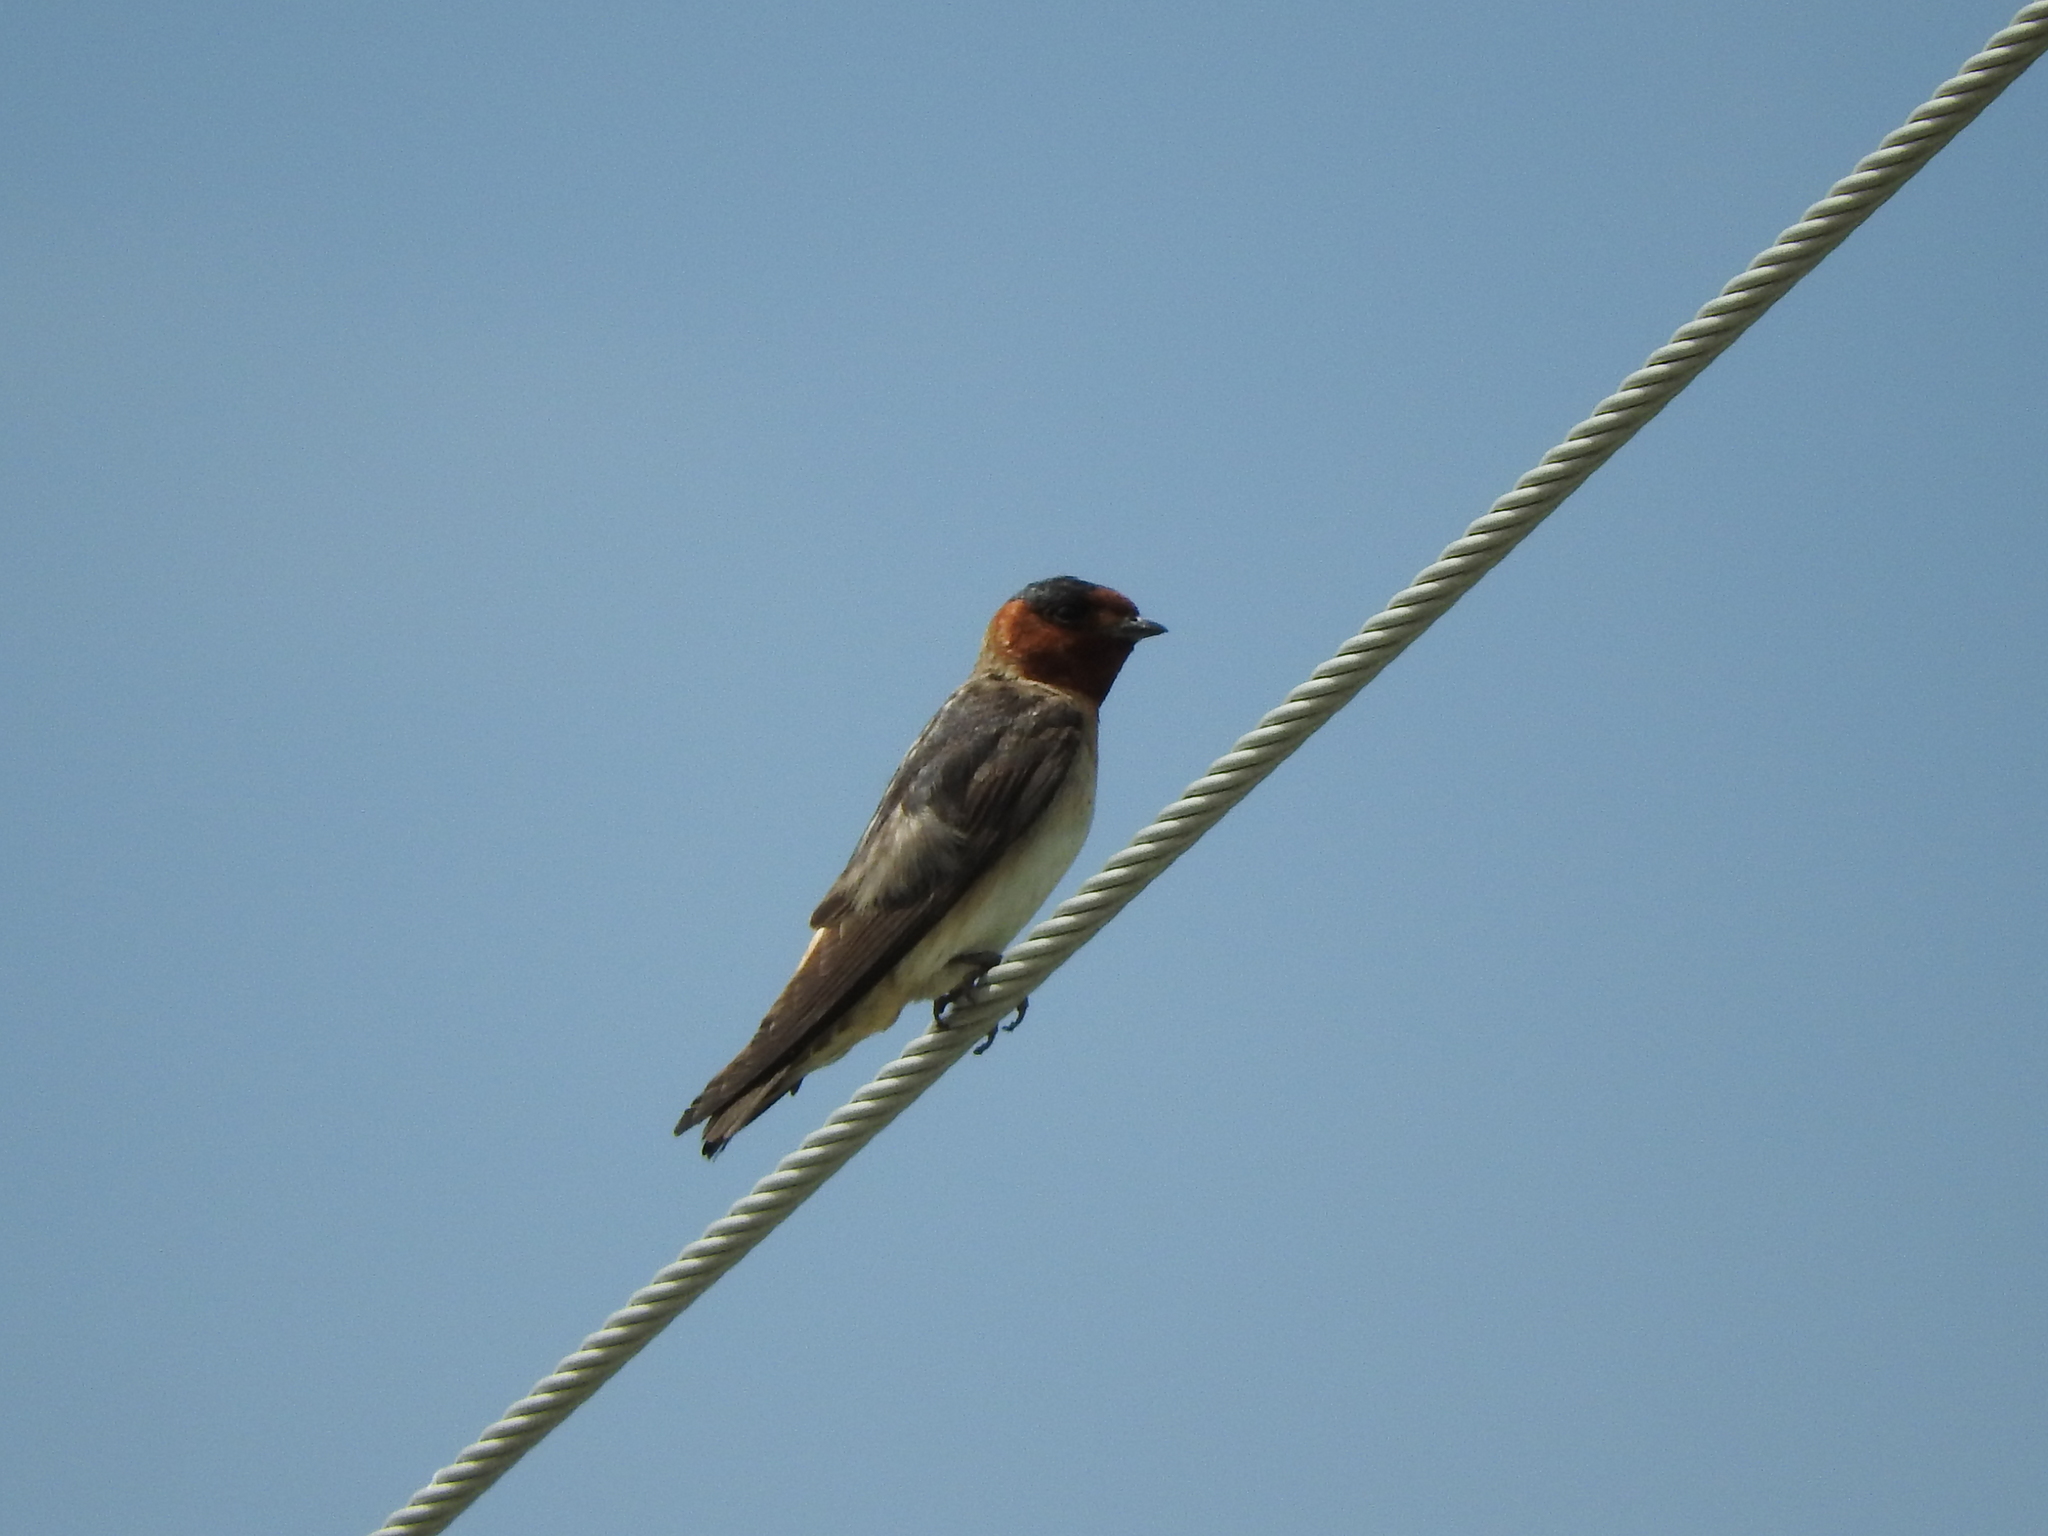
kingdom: Animalia
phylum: Chordata
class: Aves
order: Passeriformes
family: Hirundinidae
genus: Petrochelidon
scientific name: Petrochelidon pyrrhonota
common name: American cliff swallow
